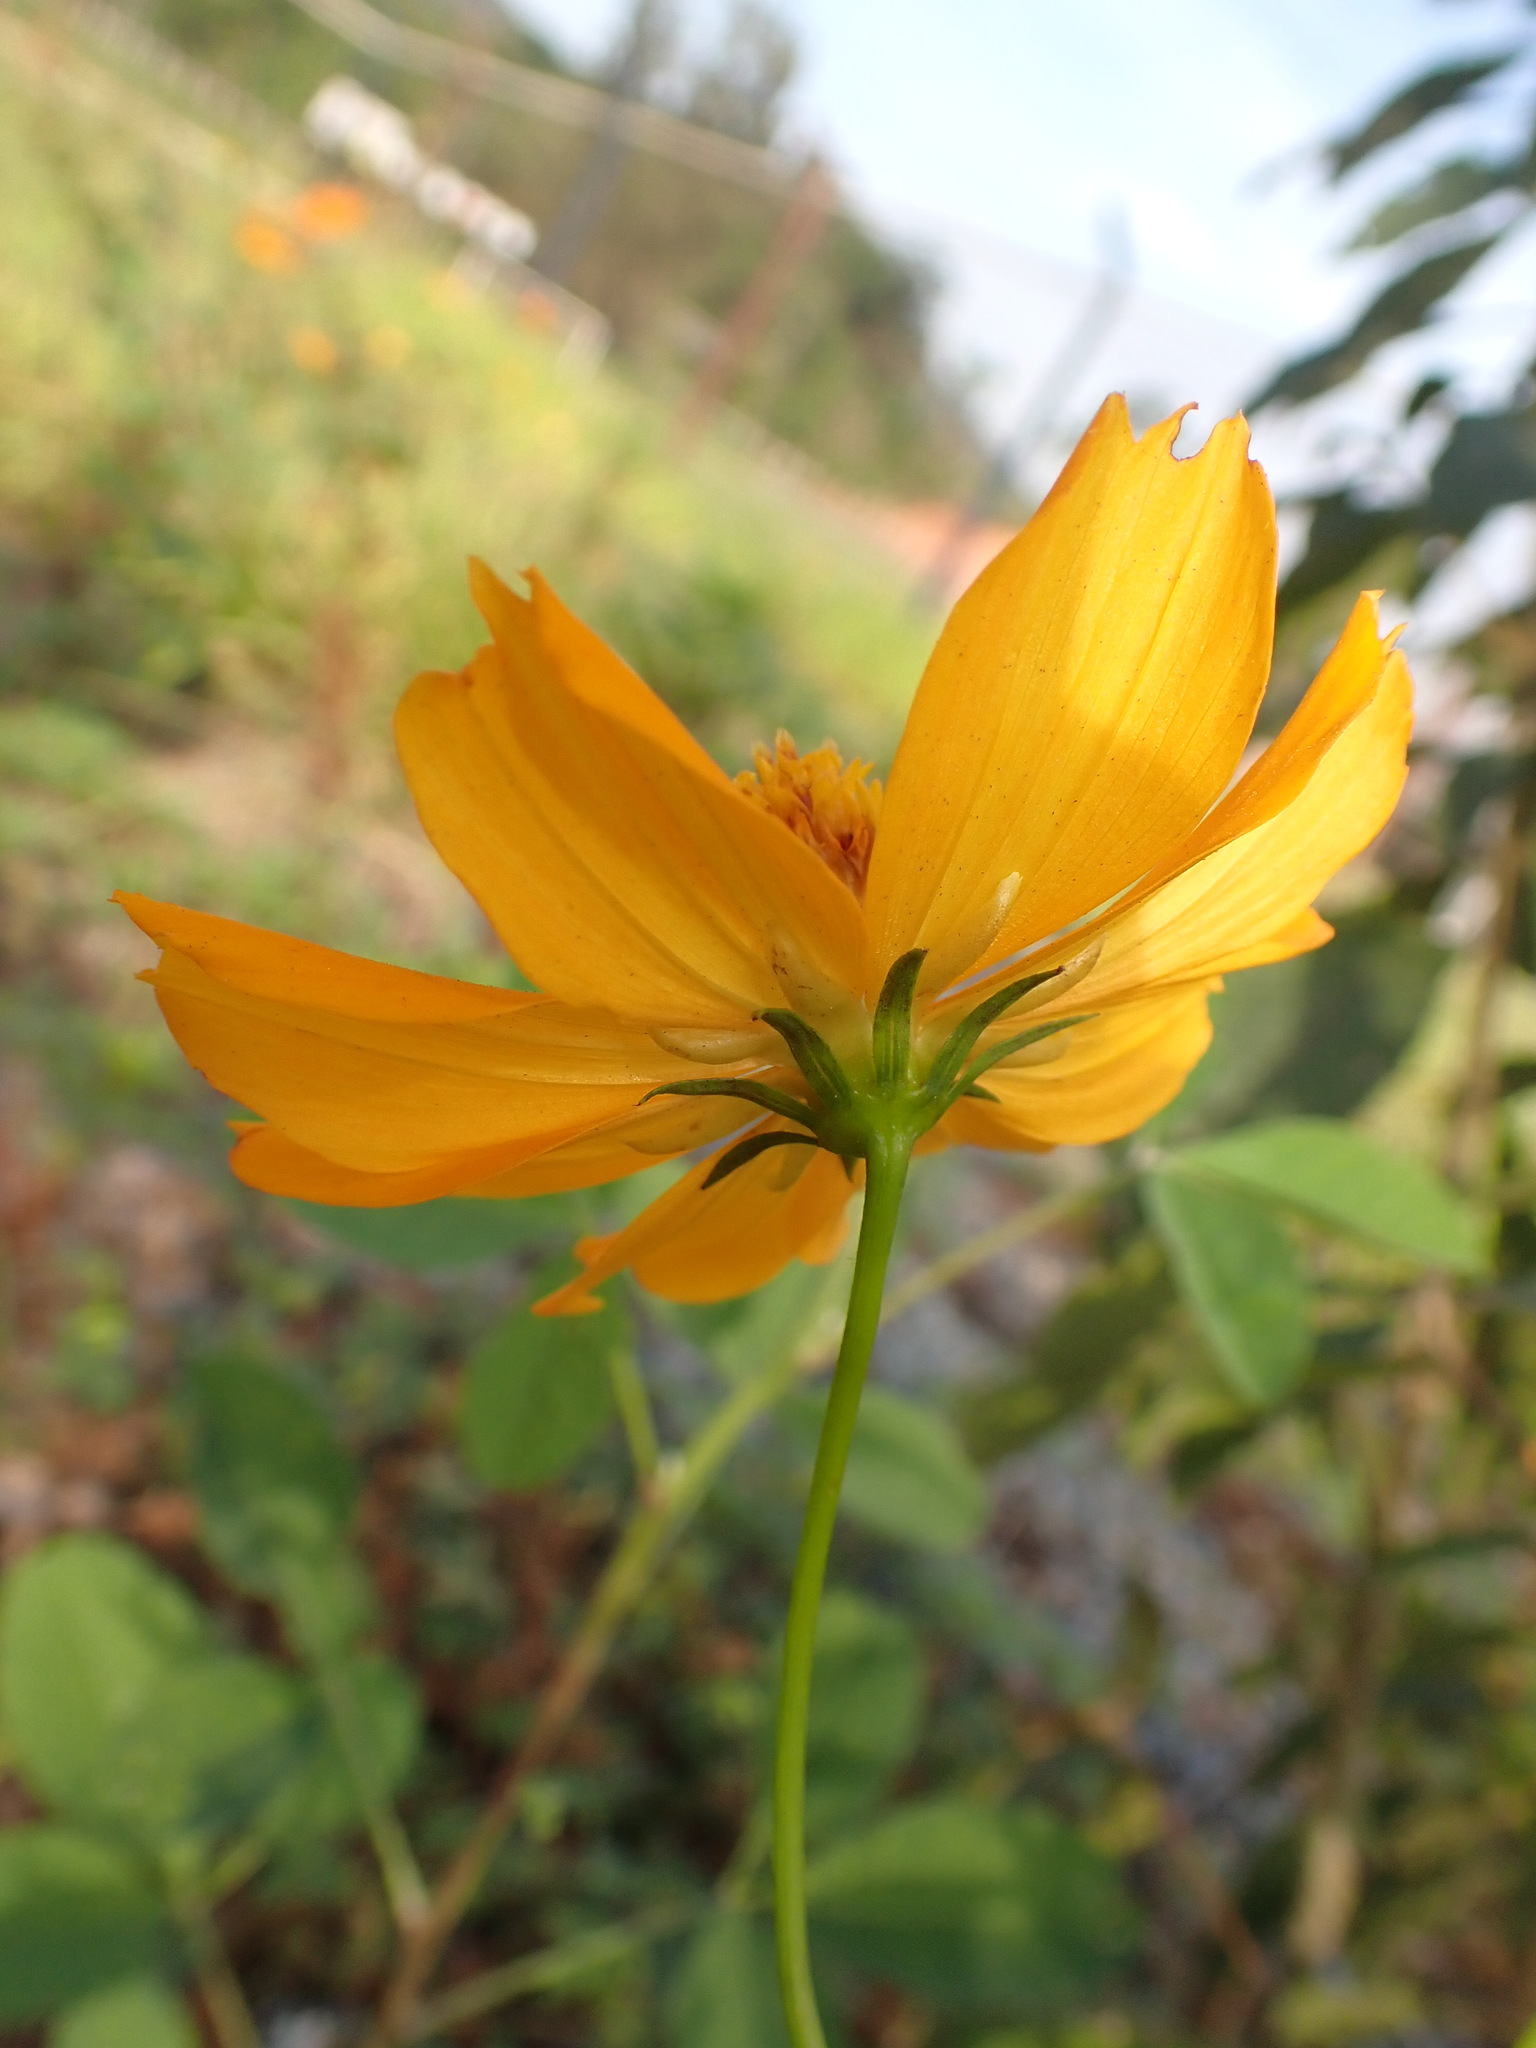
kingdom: Plantae
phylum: Tracheophyta
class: Magnoliopsida
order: Asterales
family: Asteraceae
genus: Cosmos
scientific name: Cosmos sulphureus
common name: Sulphur cosmos
